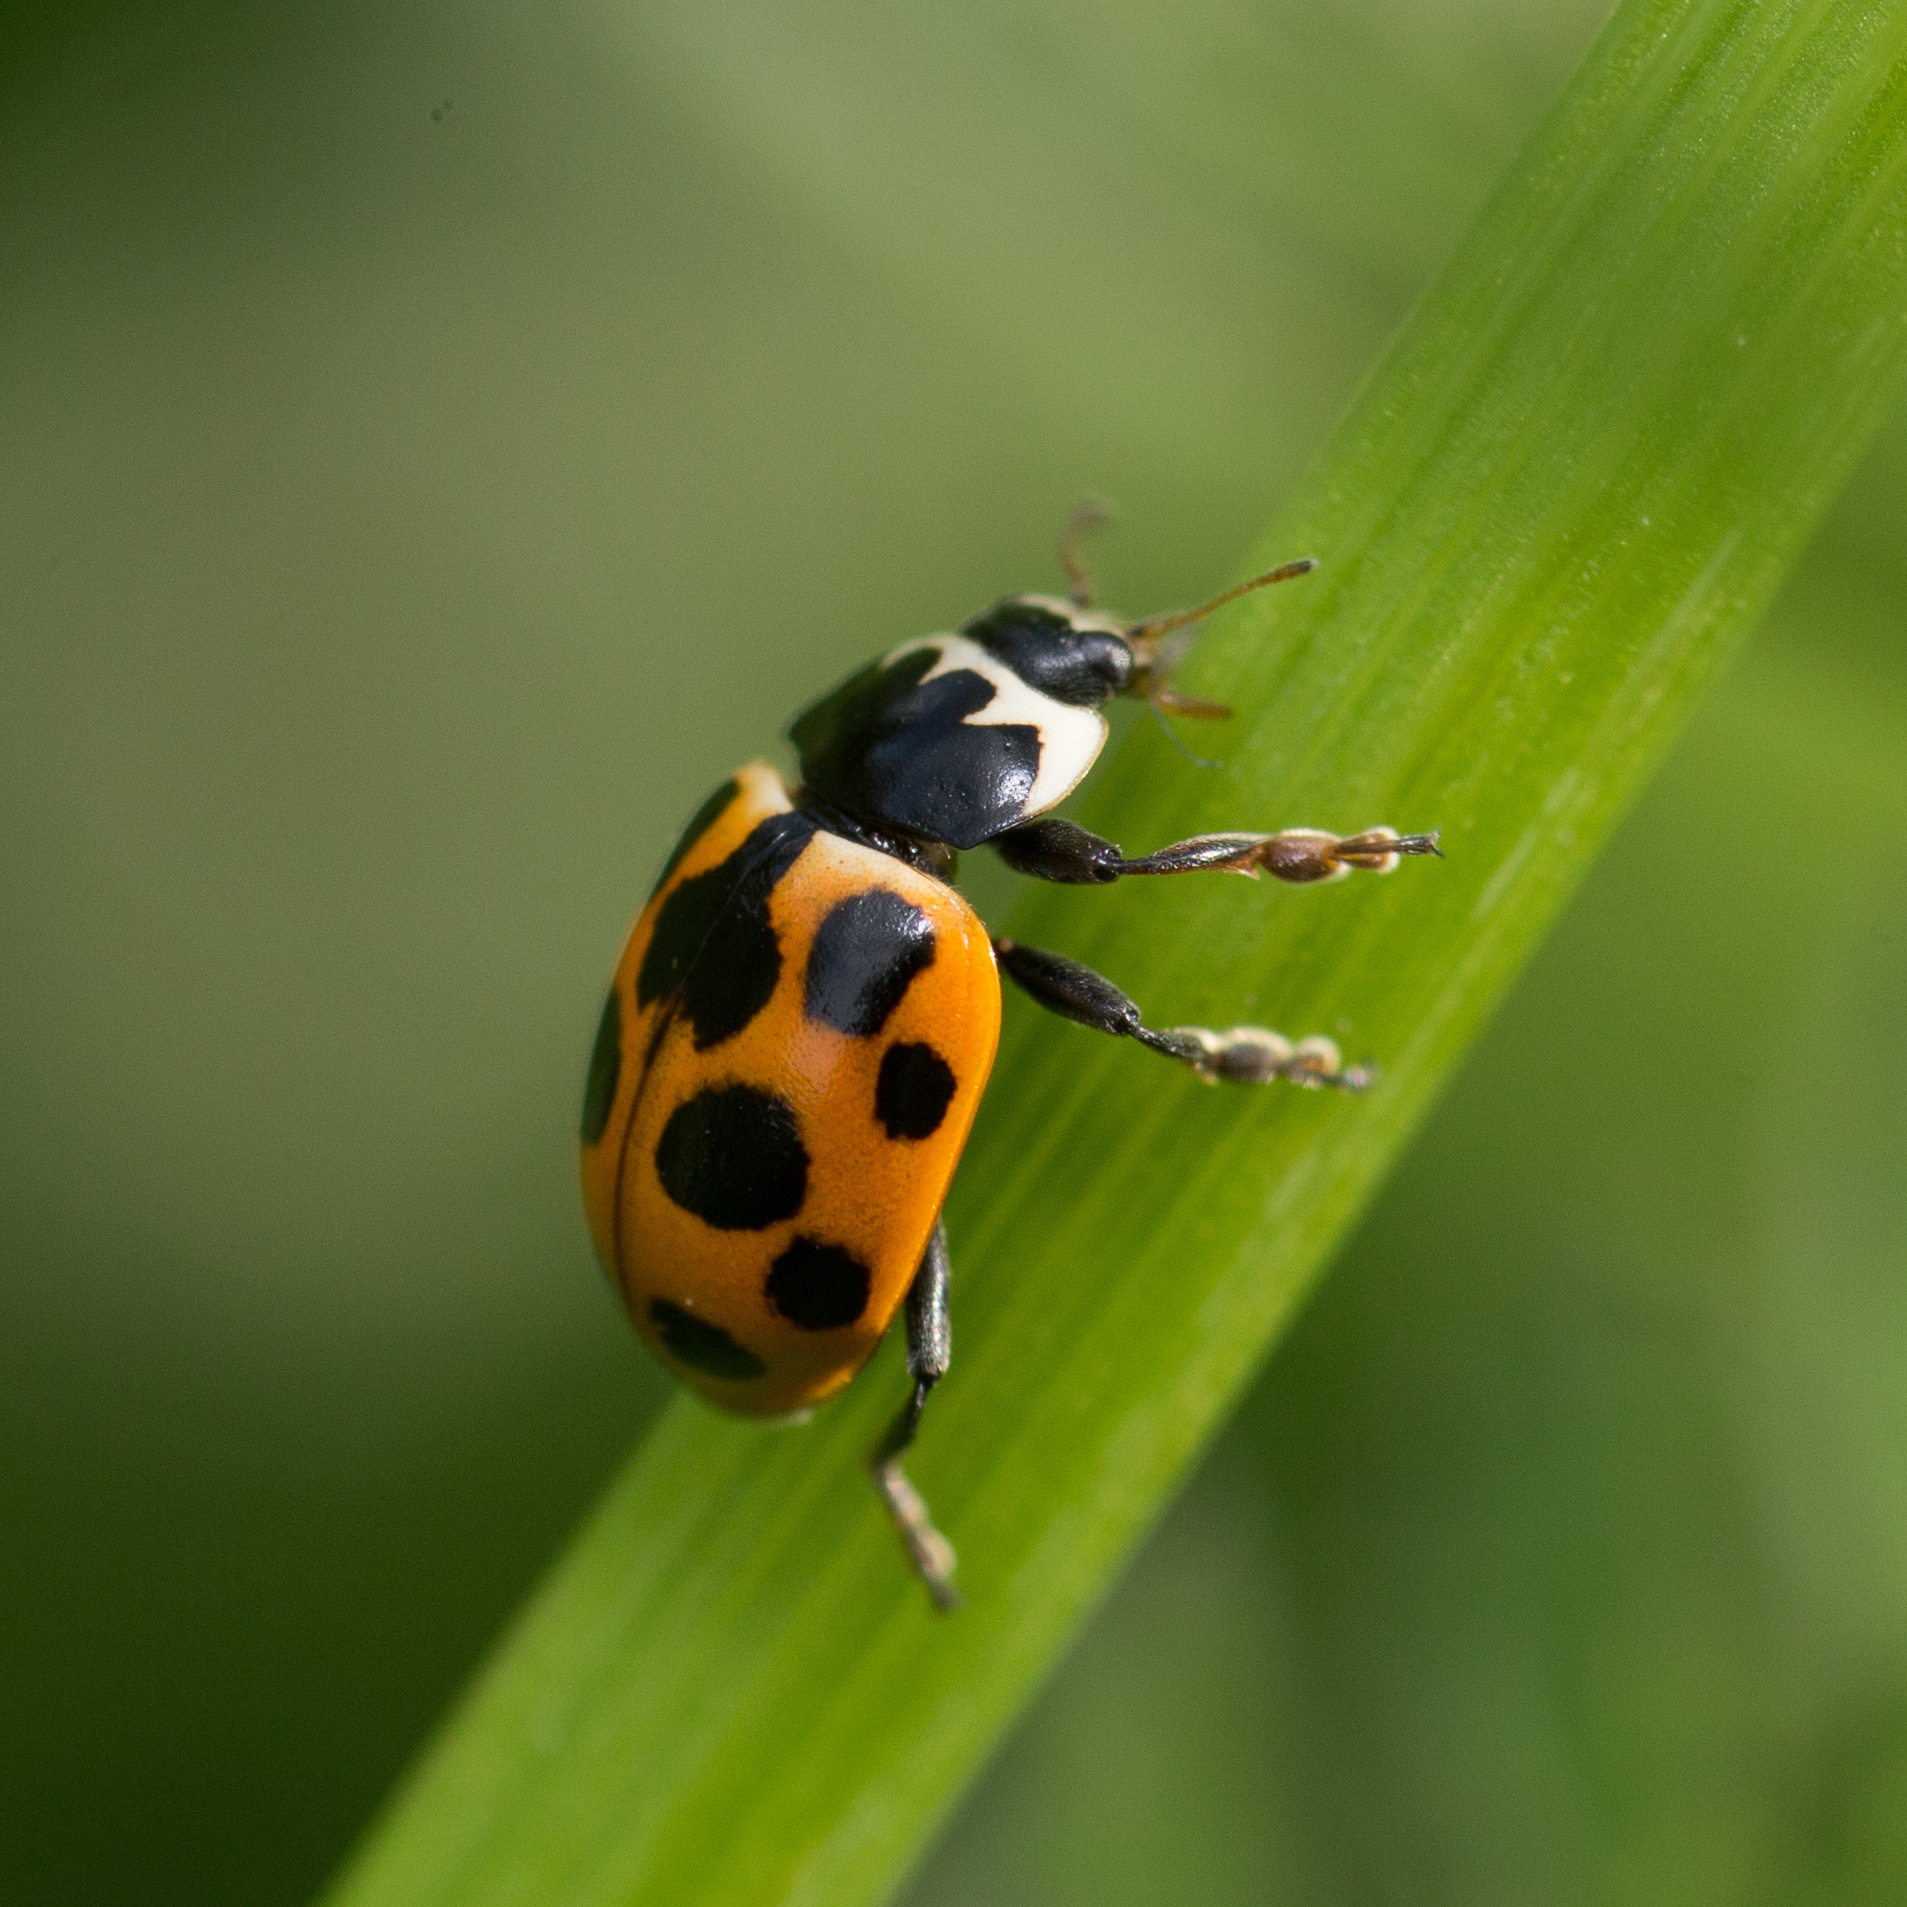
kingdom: Animalia
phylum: Arthropoda
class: Insecta
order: Coleoptera
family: Coccinellidae
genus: Ceratomegilla
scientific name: Ceratomegilla notata
